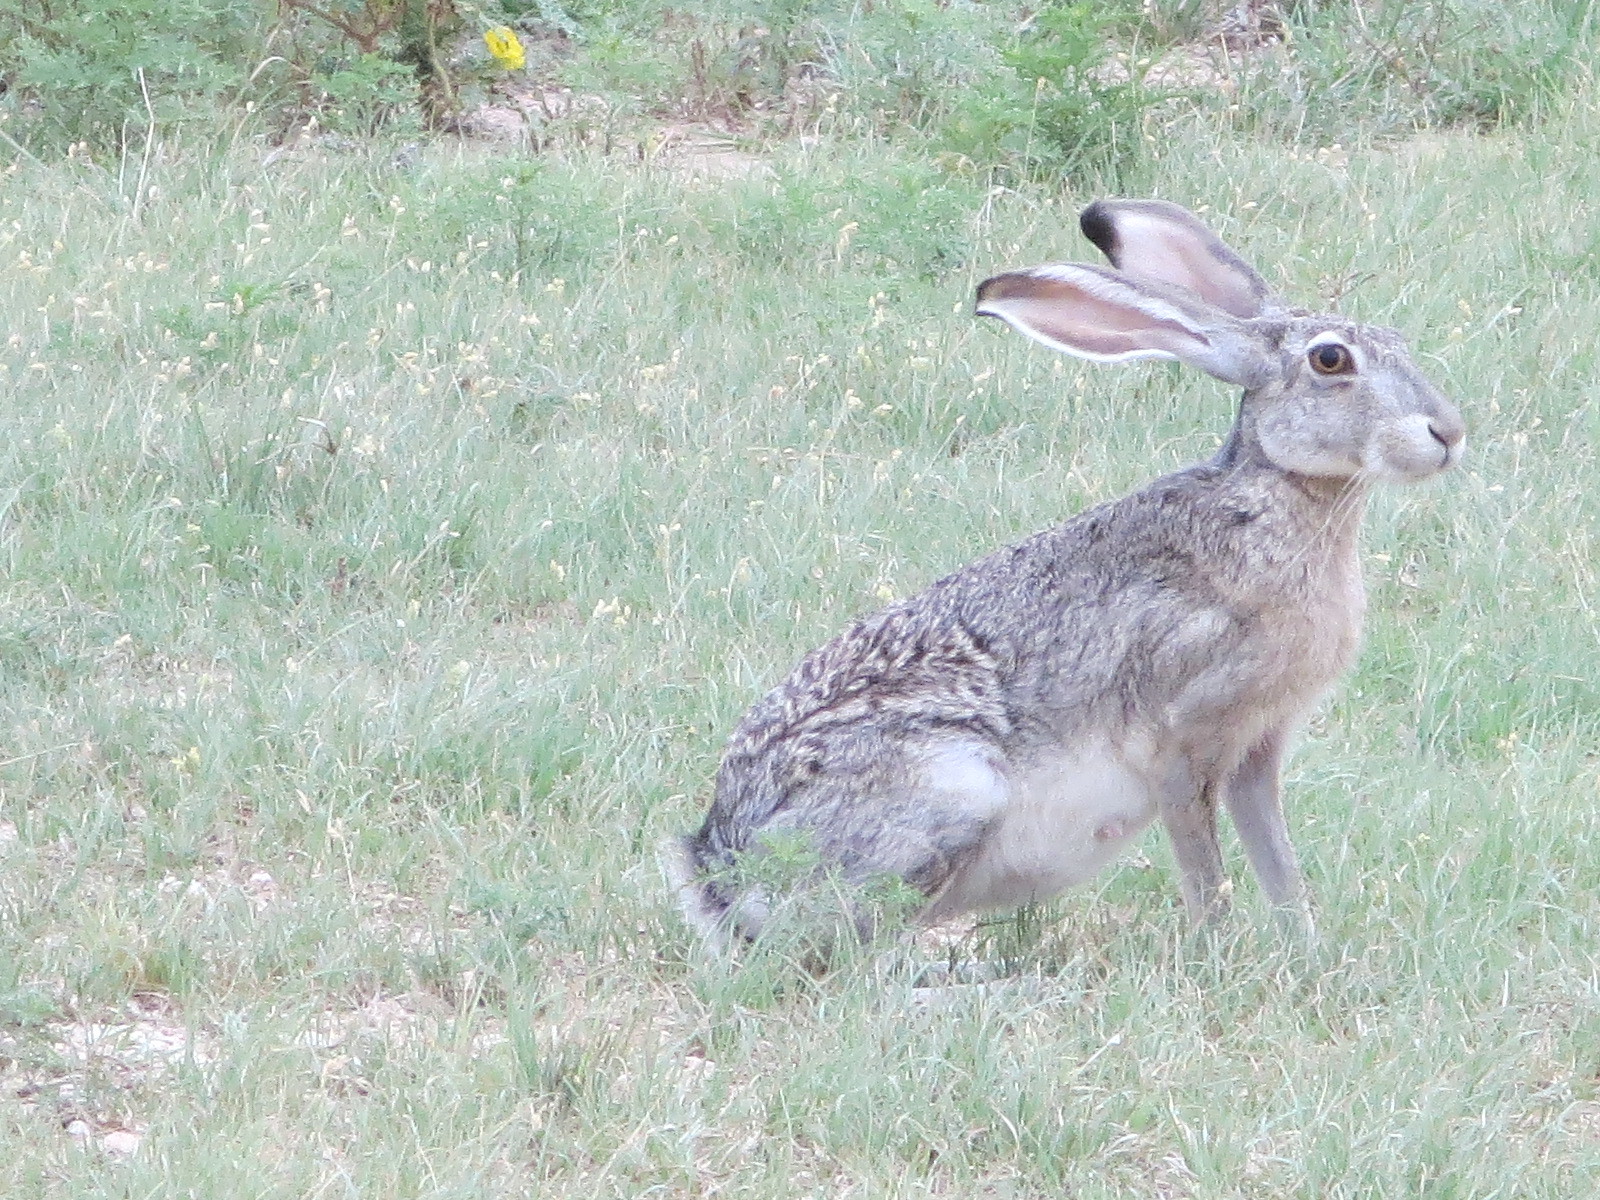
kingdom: Animalia
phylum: Chordata
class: Mammalia
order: Lagomorpha
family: Leporidae
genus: Lepus
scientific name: Lepus californicus
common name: Black-tailed jackrabbit
